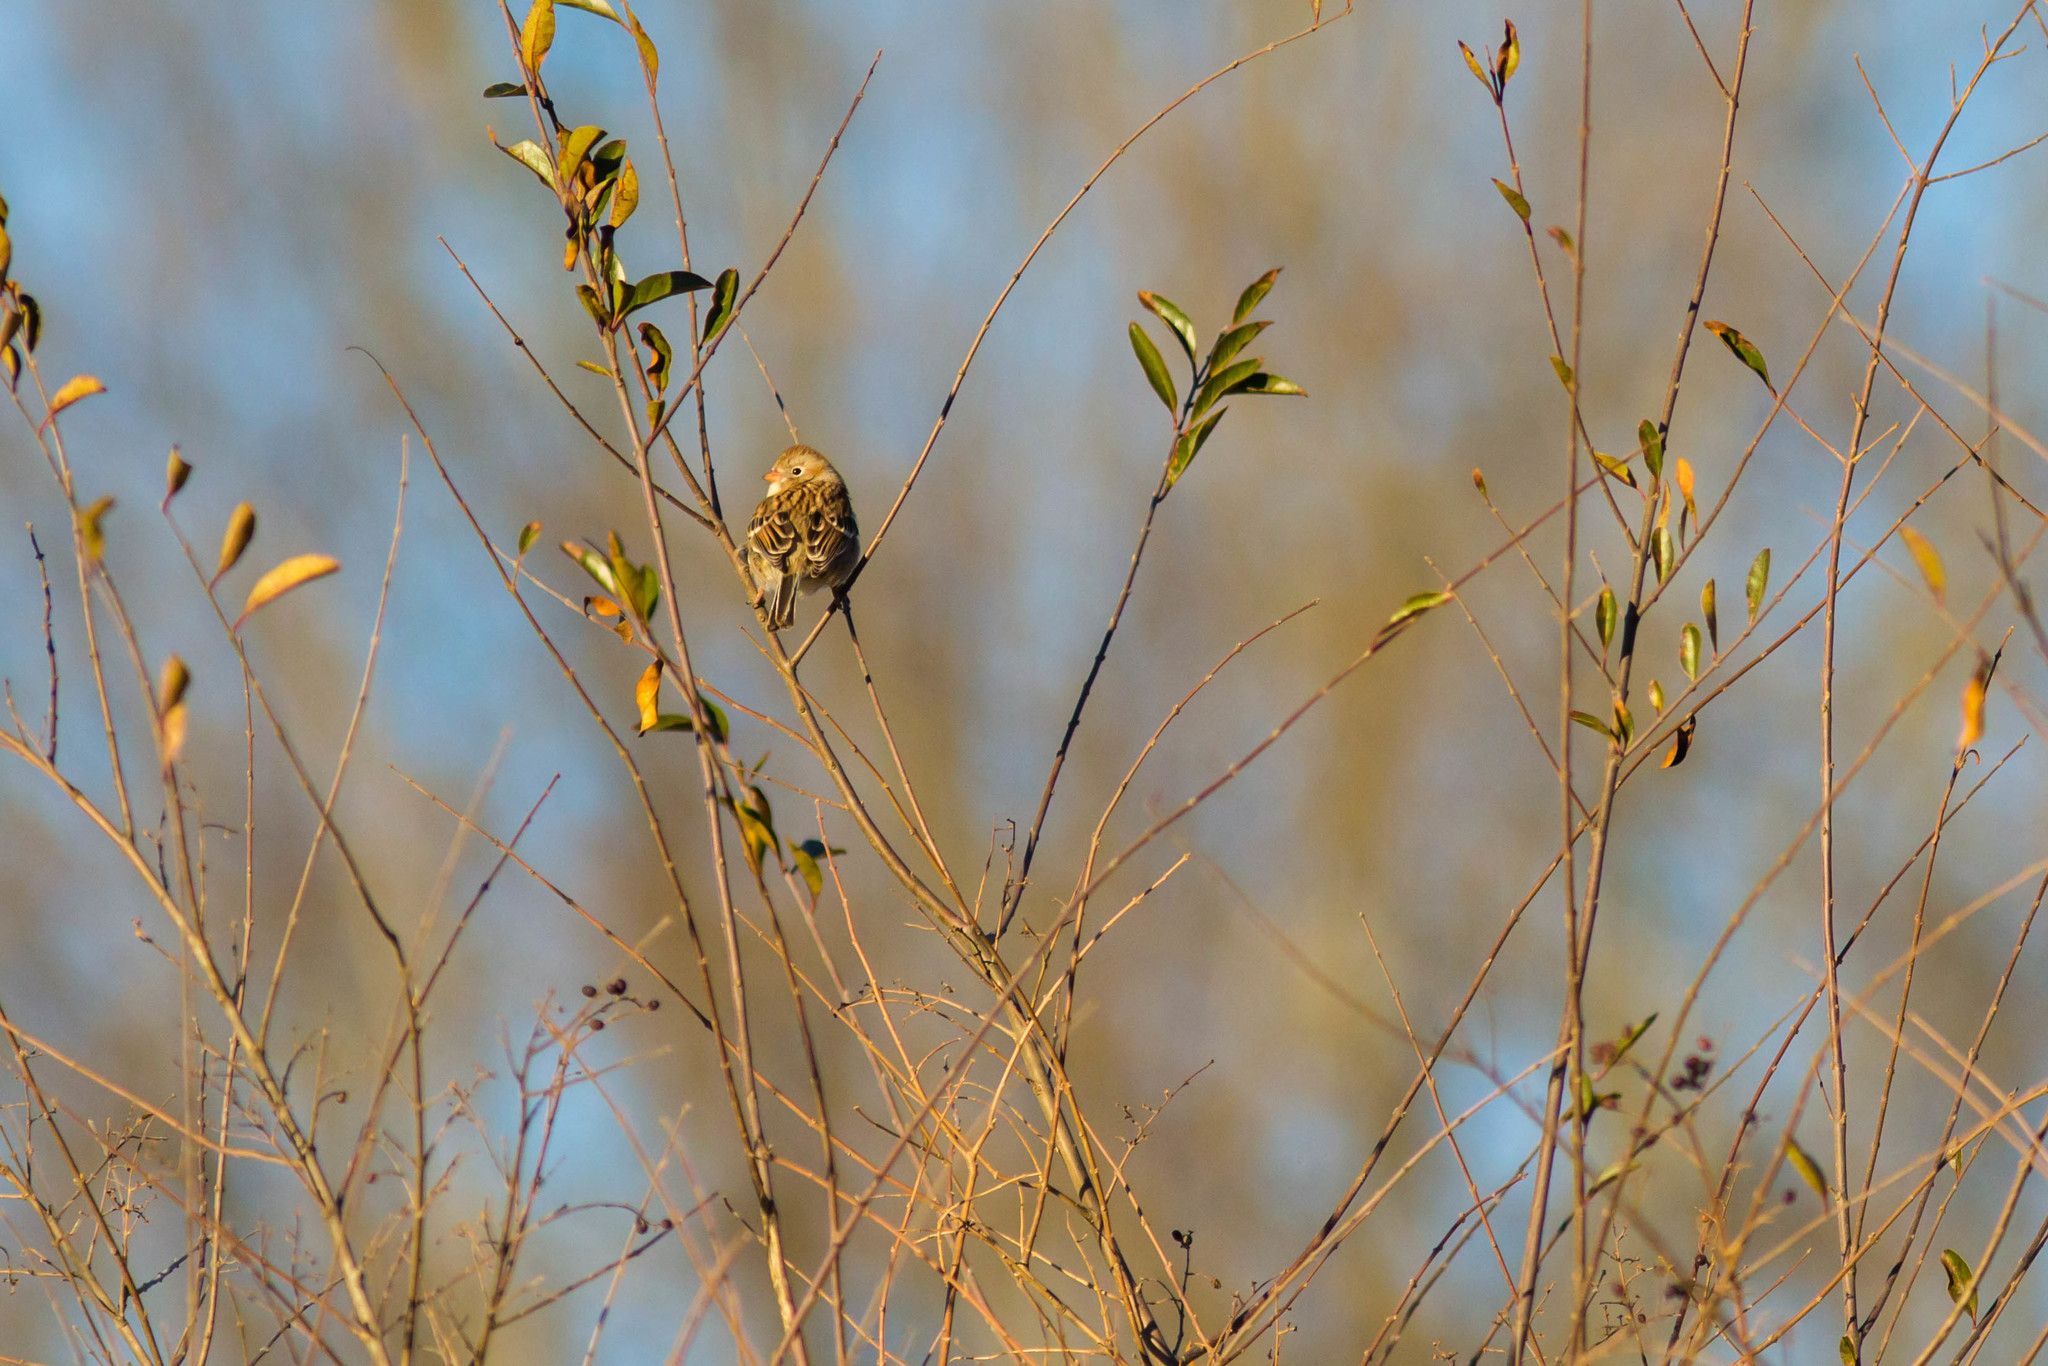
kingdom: Animalia
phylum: Chordata
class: Aves
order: Passeriformes
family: Passerellidae
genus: Spizella
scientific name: Spizella pusilla
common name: Field sparrow
